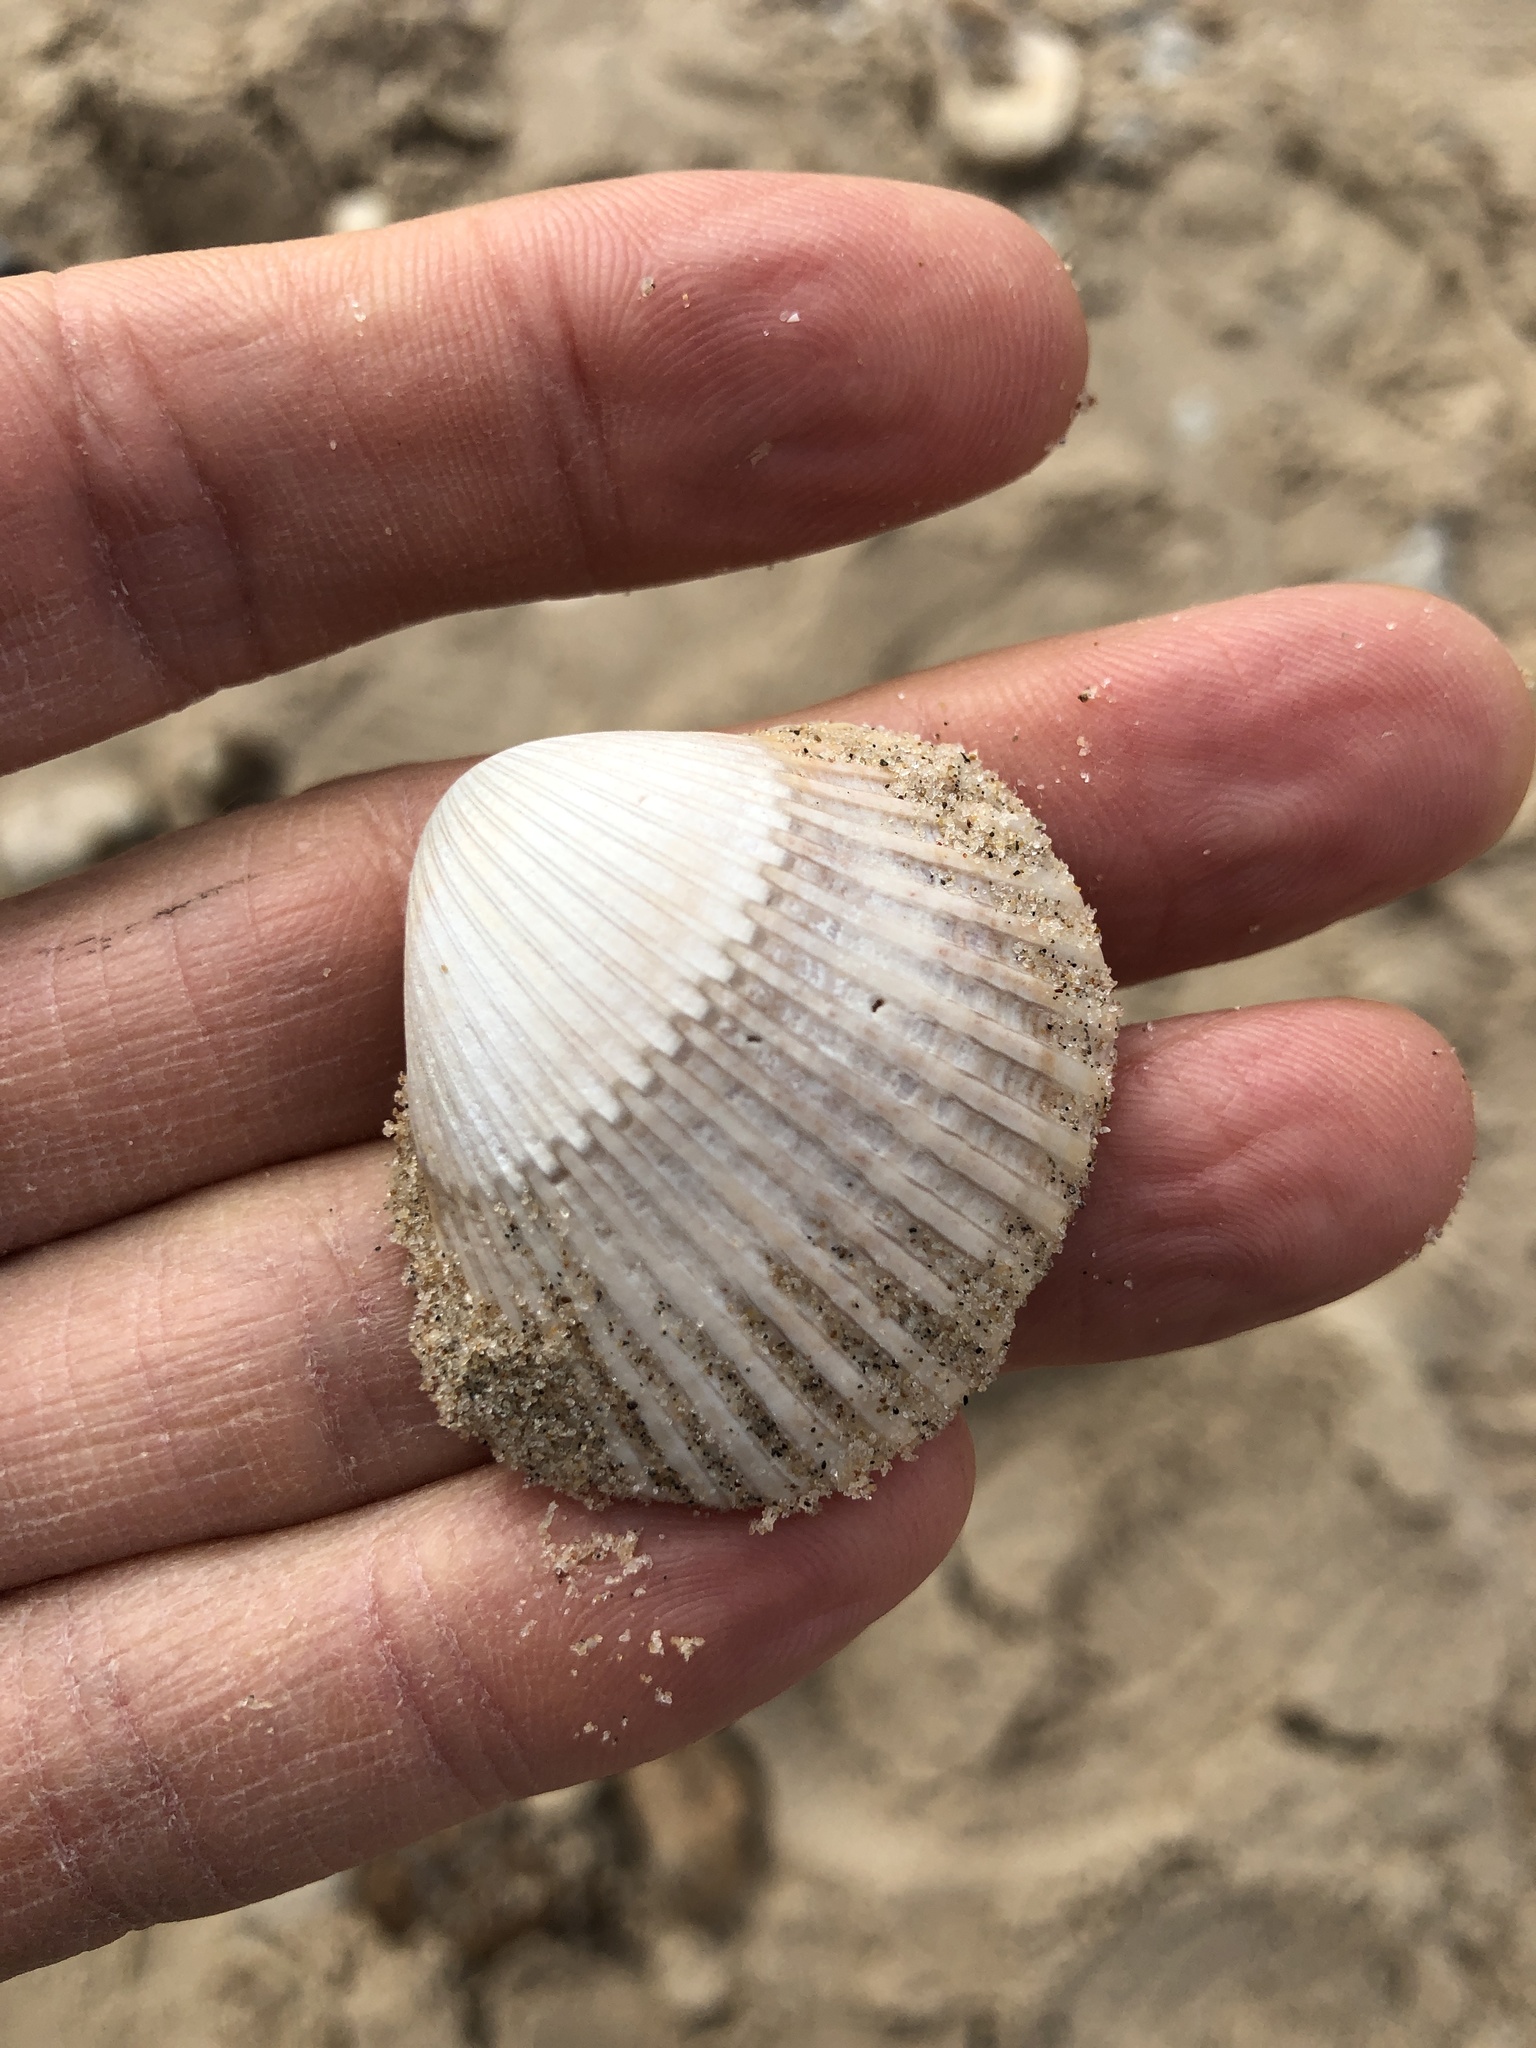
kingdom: Animalia
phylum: Mollusca
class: Bivalvia
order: Arcida
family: Arcidae
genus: Lunarca
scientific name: Lunarca ovalis
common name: Blood ark
